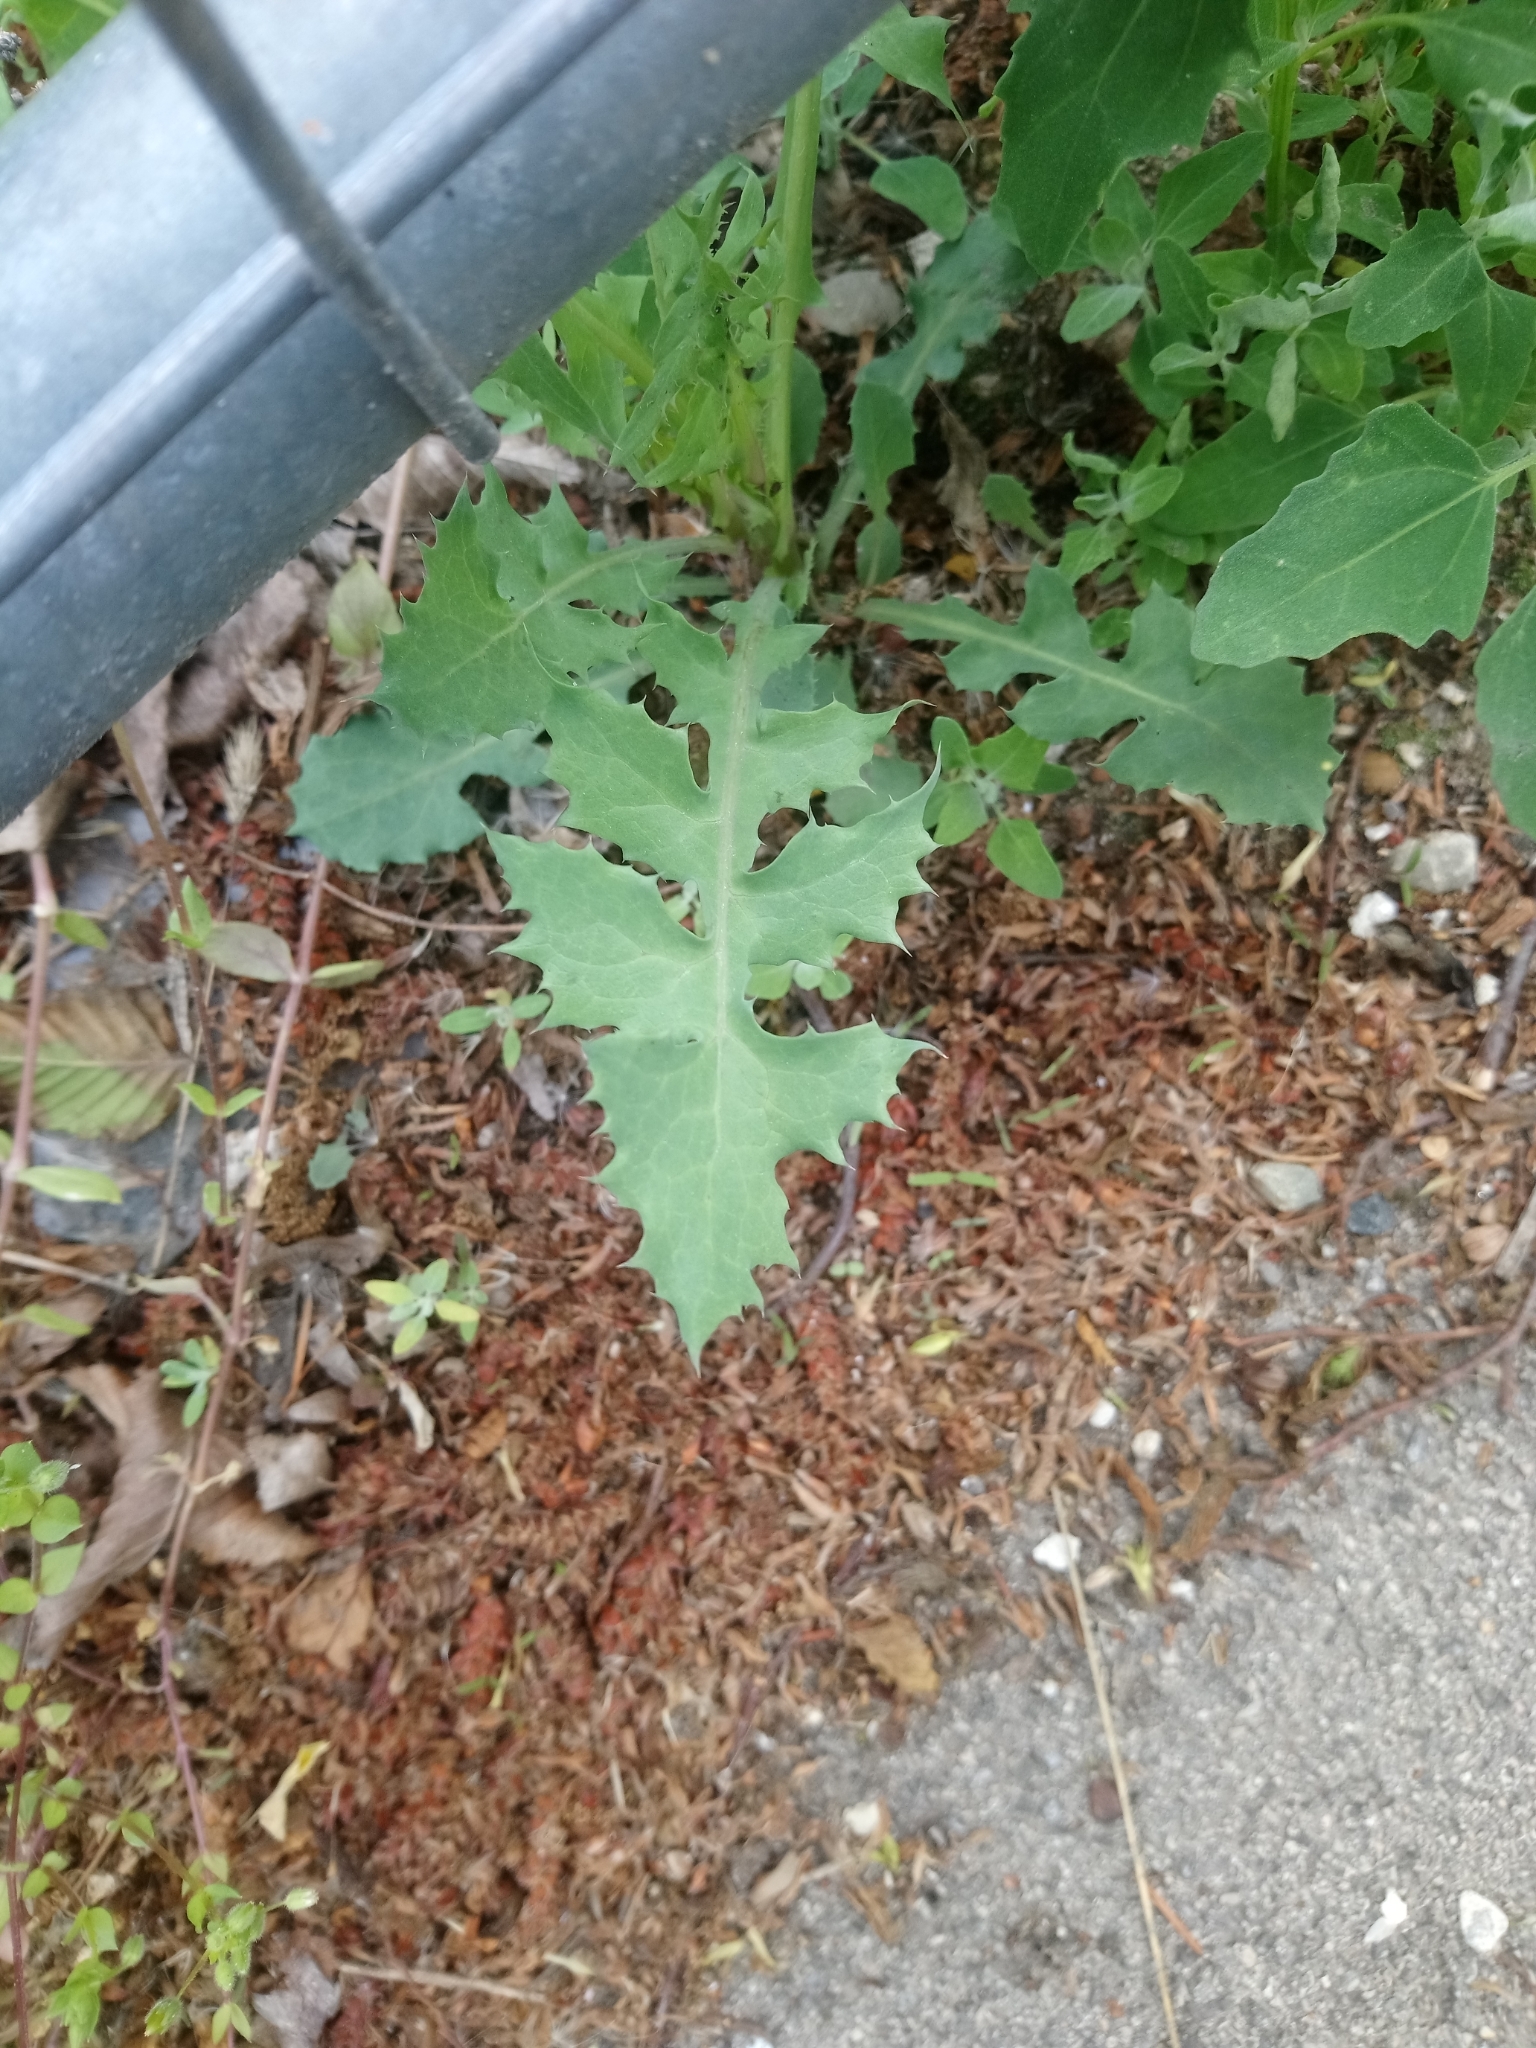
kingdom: Plantae
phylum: Tracheophyta
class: Magnoliopsida
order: Asterales
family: Asteraceae
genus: Sonchus
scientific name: Sonchus oleraceus
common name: Common sowthistle
